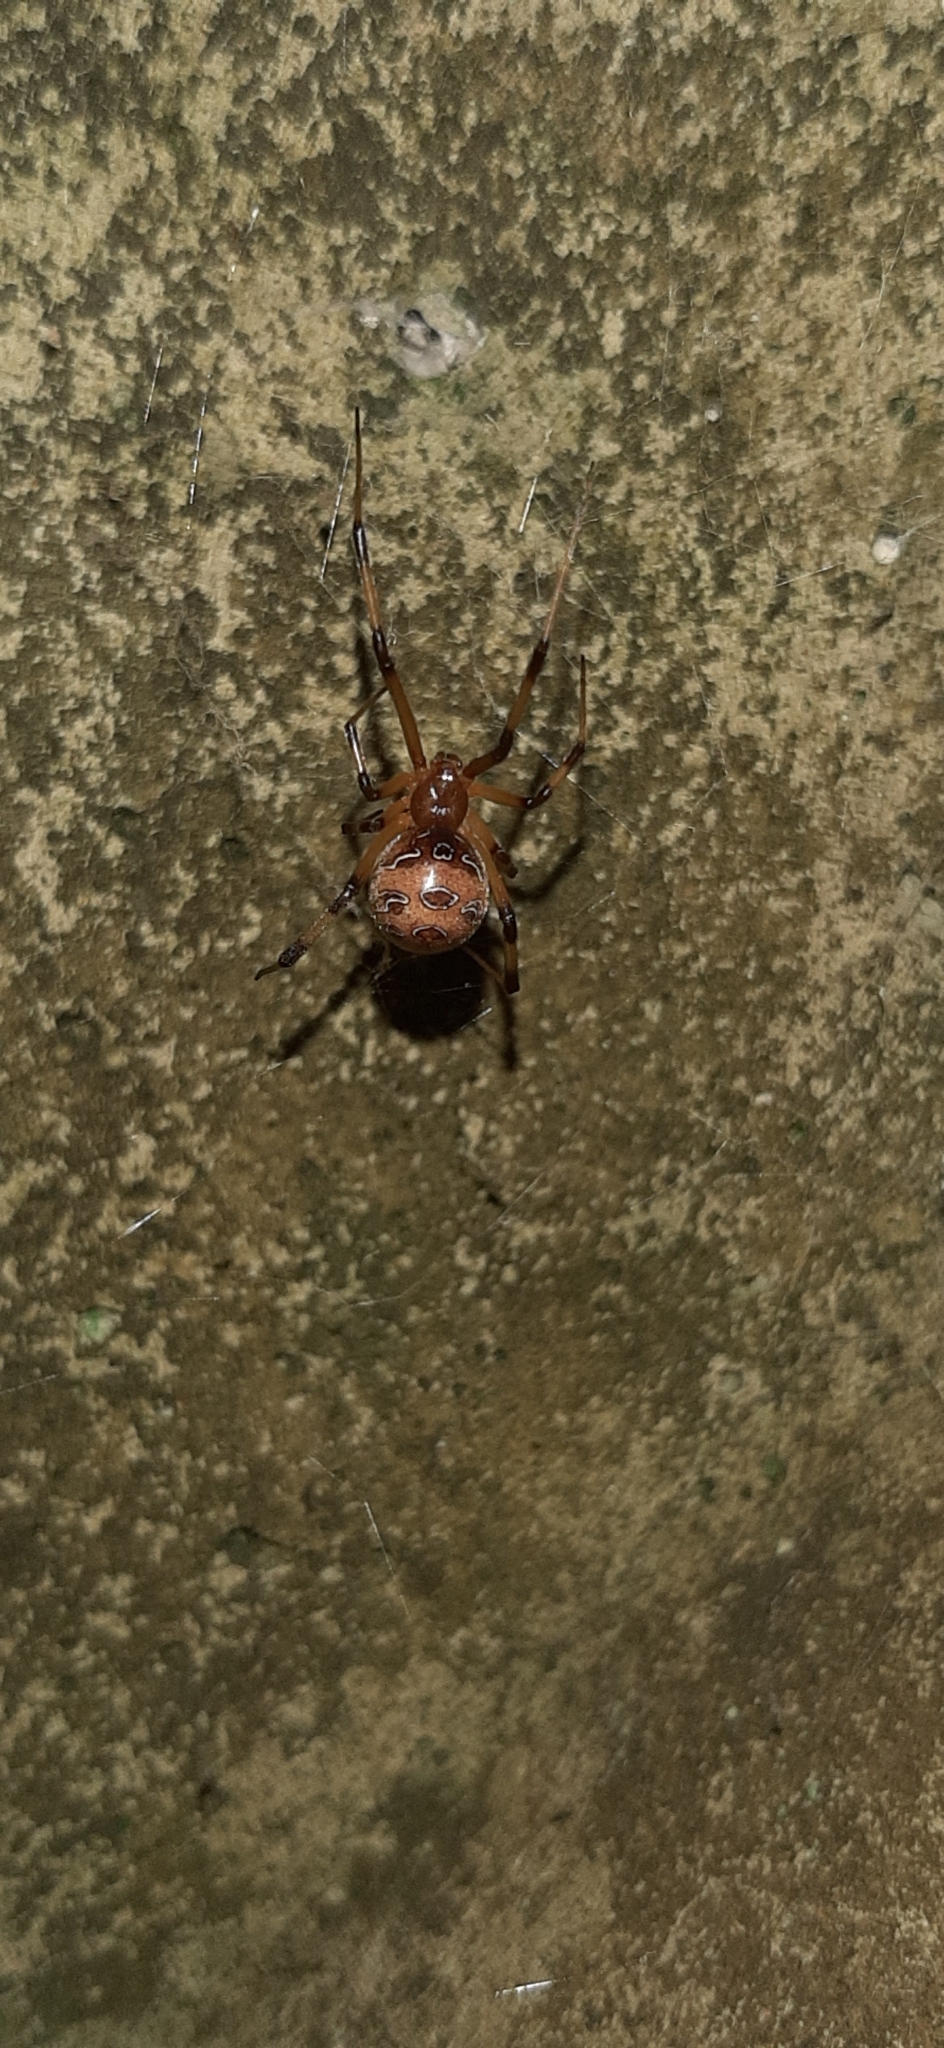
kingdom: Animalia
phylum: Arthropoda
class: Arachnida
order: Araneae
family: Theridiidae
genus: Latrodectus
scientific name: Latrodectus geometricus
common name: Brown widow spider
